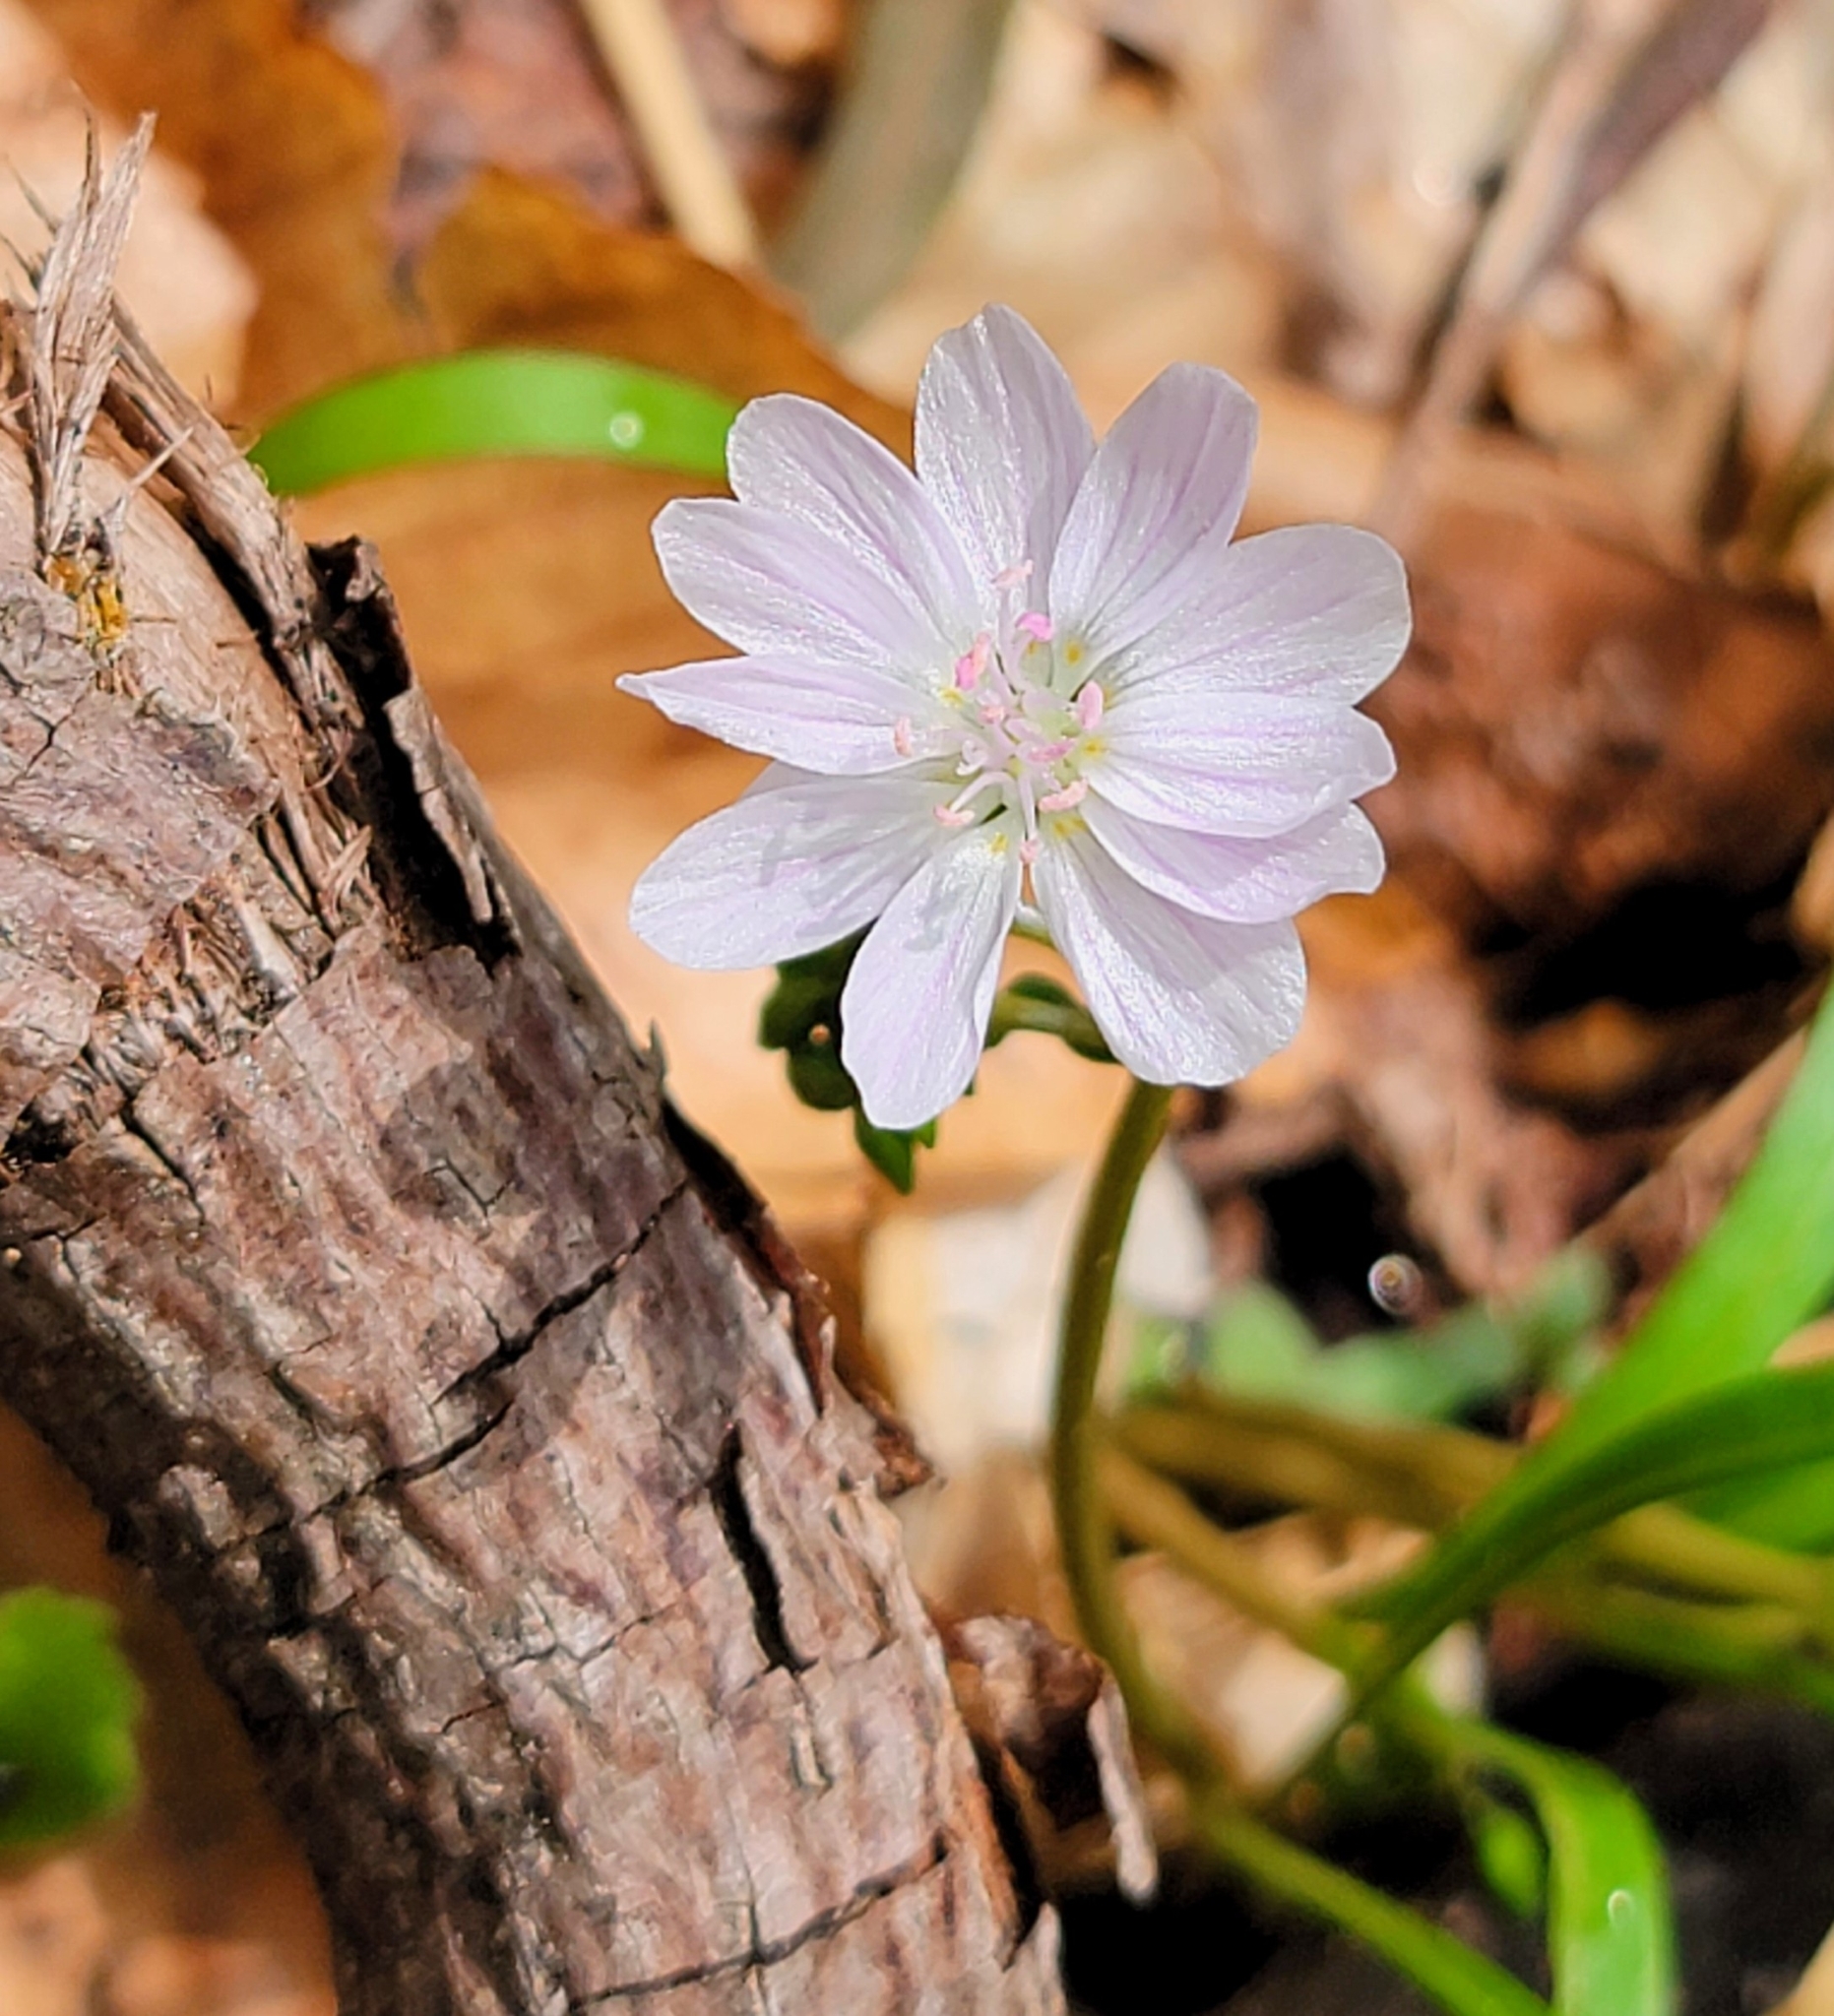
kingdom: Plantae
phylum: Tracheophyta
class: Magnoliopsida
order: Caryophyllales
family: Montiaceae
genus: Claytonia
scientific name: Claytonia virginica
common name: Virginia springbeauty
